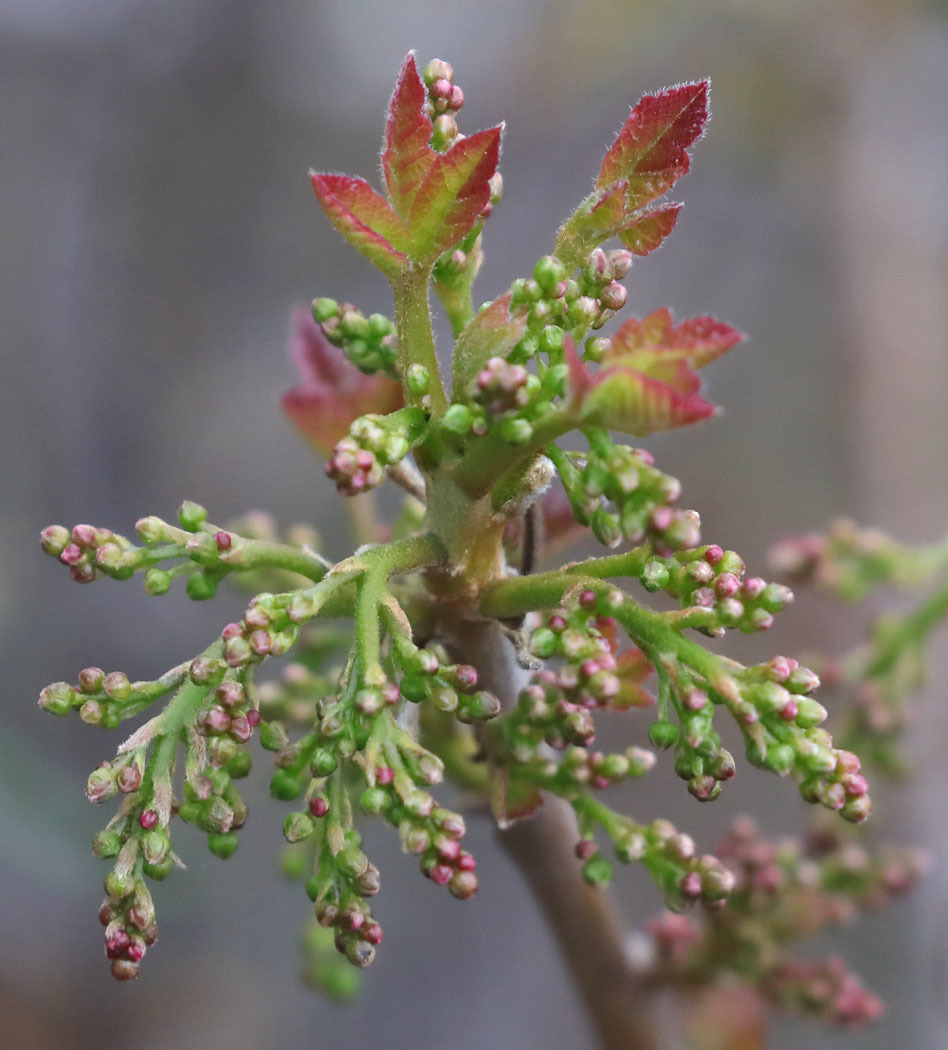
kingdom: Plantae
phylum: Tracheophyta
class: Magnoliopsida
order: Sapindales
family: Anacardiaceae
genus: Toxicodendron
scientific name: Toxicodendron diversilobum
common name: Pacific poison-oak
